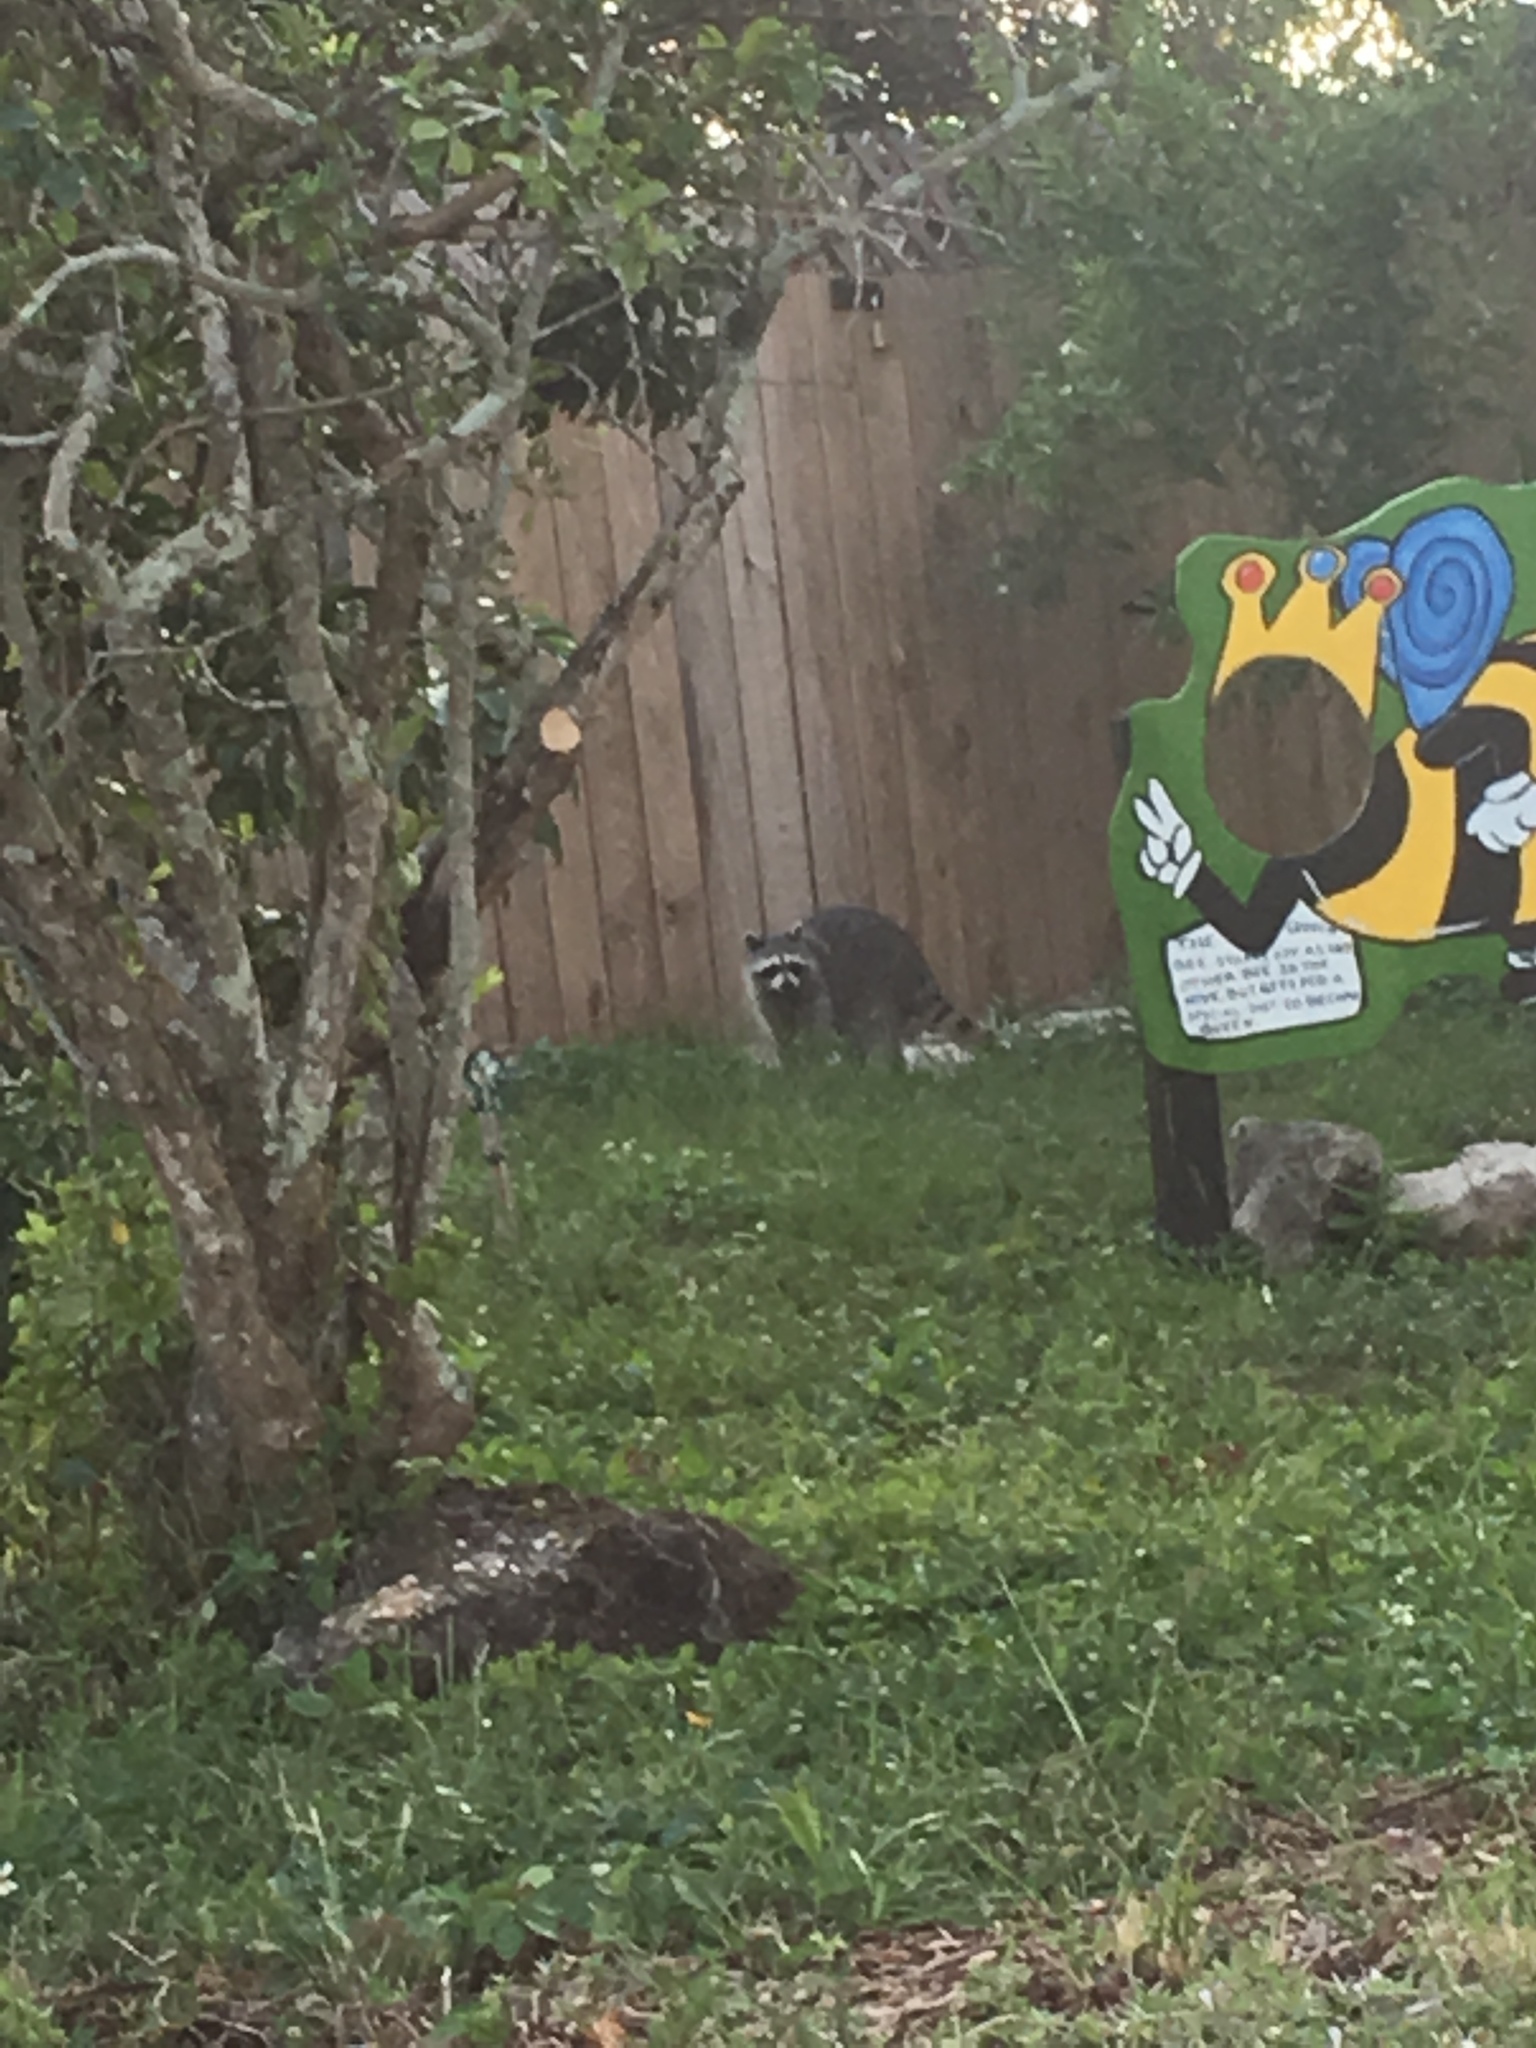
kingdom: Animalia
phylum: Chordata
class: Mammalia
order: Carnivora
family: Procyonidae
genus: Procyon
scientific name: Procyon lotor
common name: Raccoon
